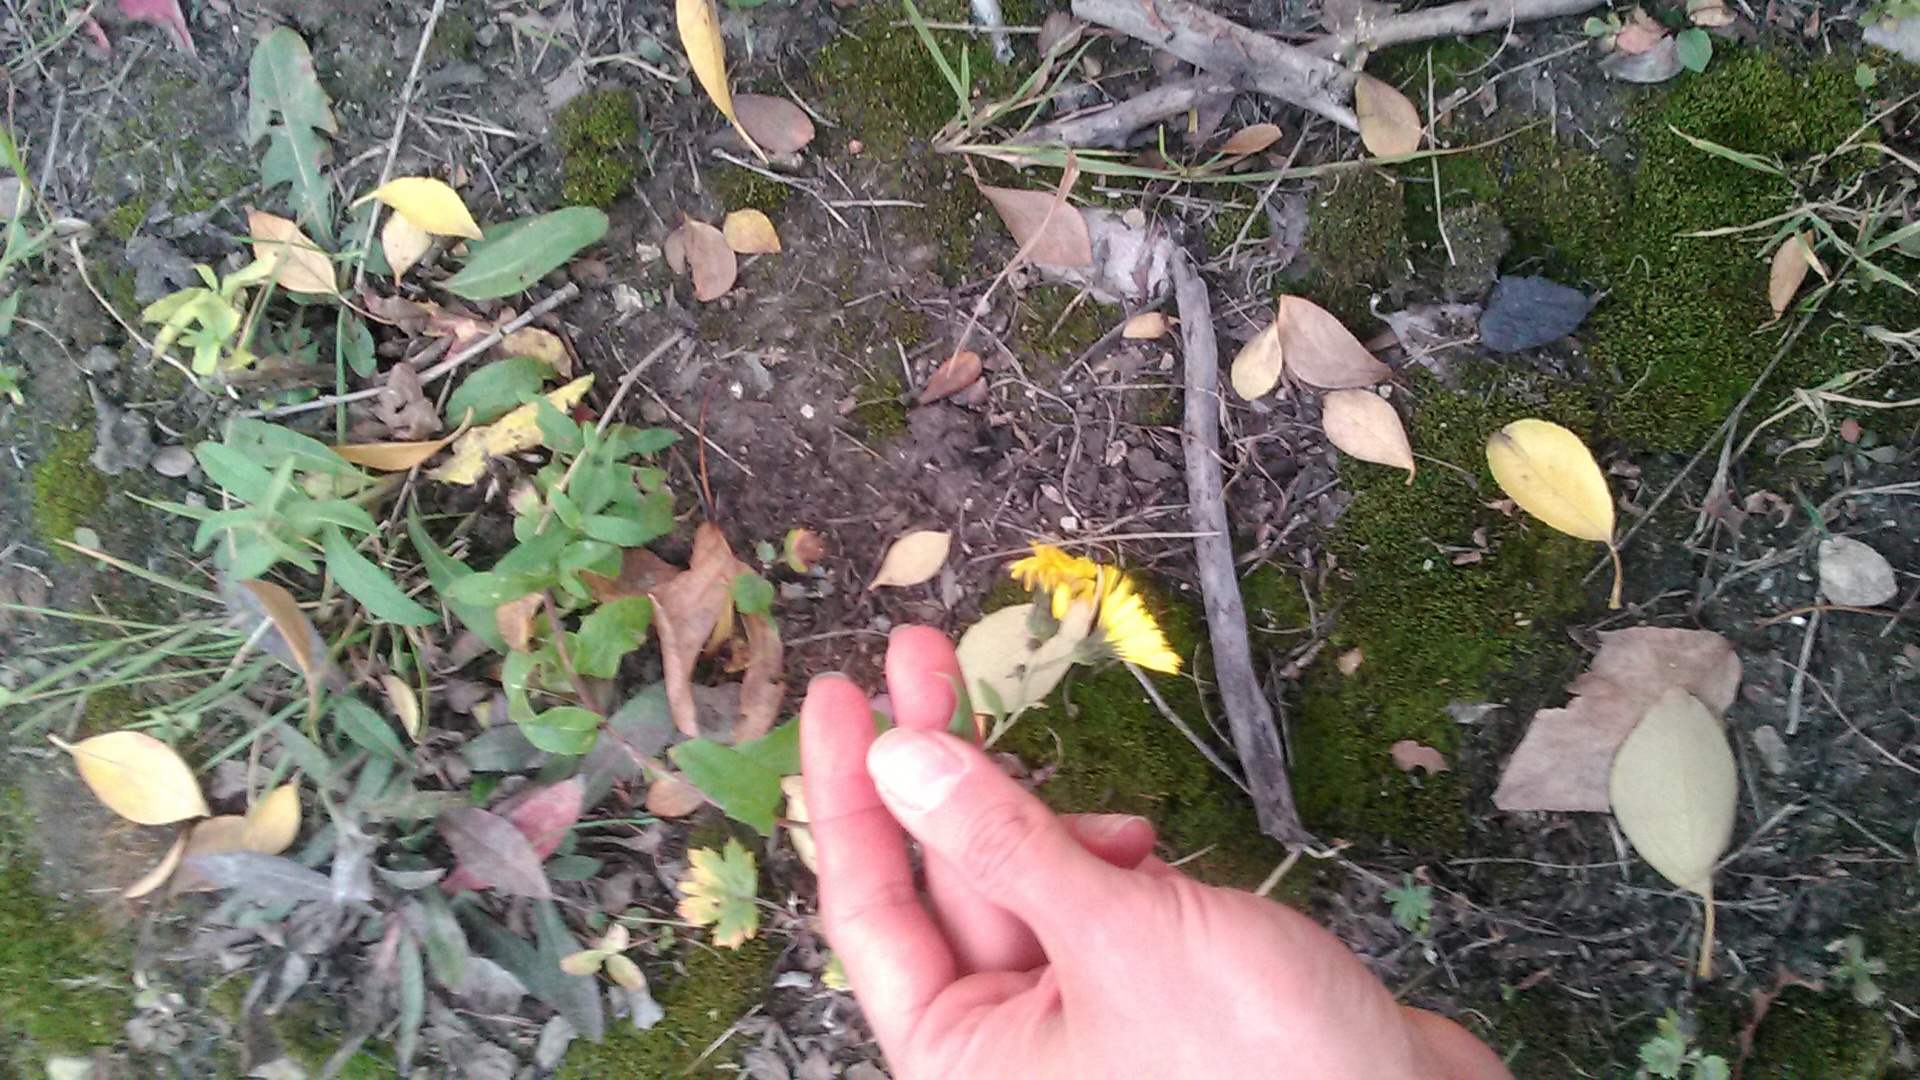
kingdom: Plantae
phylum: Tracheophyta
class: Magnoliopsida
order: Asterales
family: Asteraceae
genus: Hieracium
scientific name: Hieracium umbellatum
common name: Northern hawkweed
